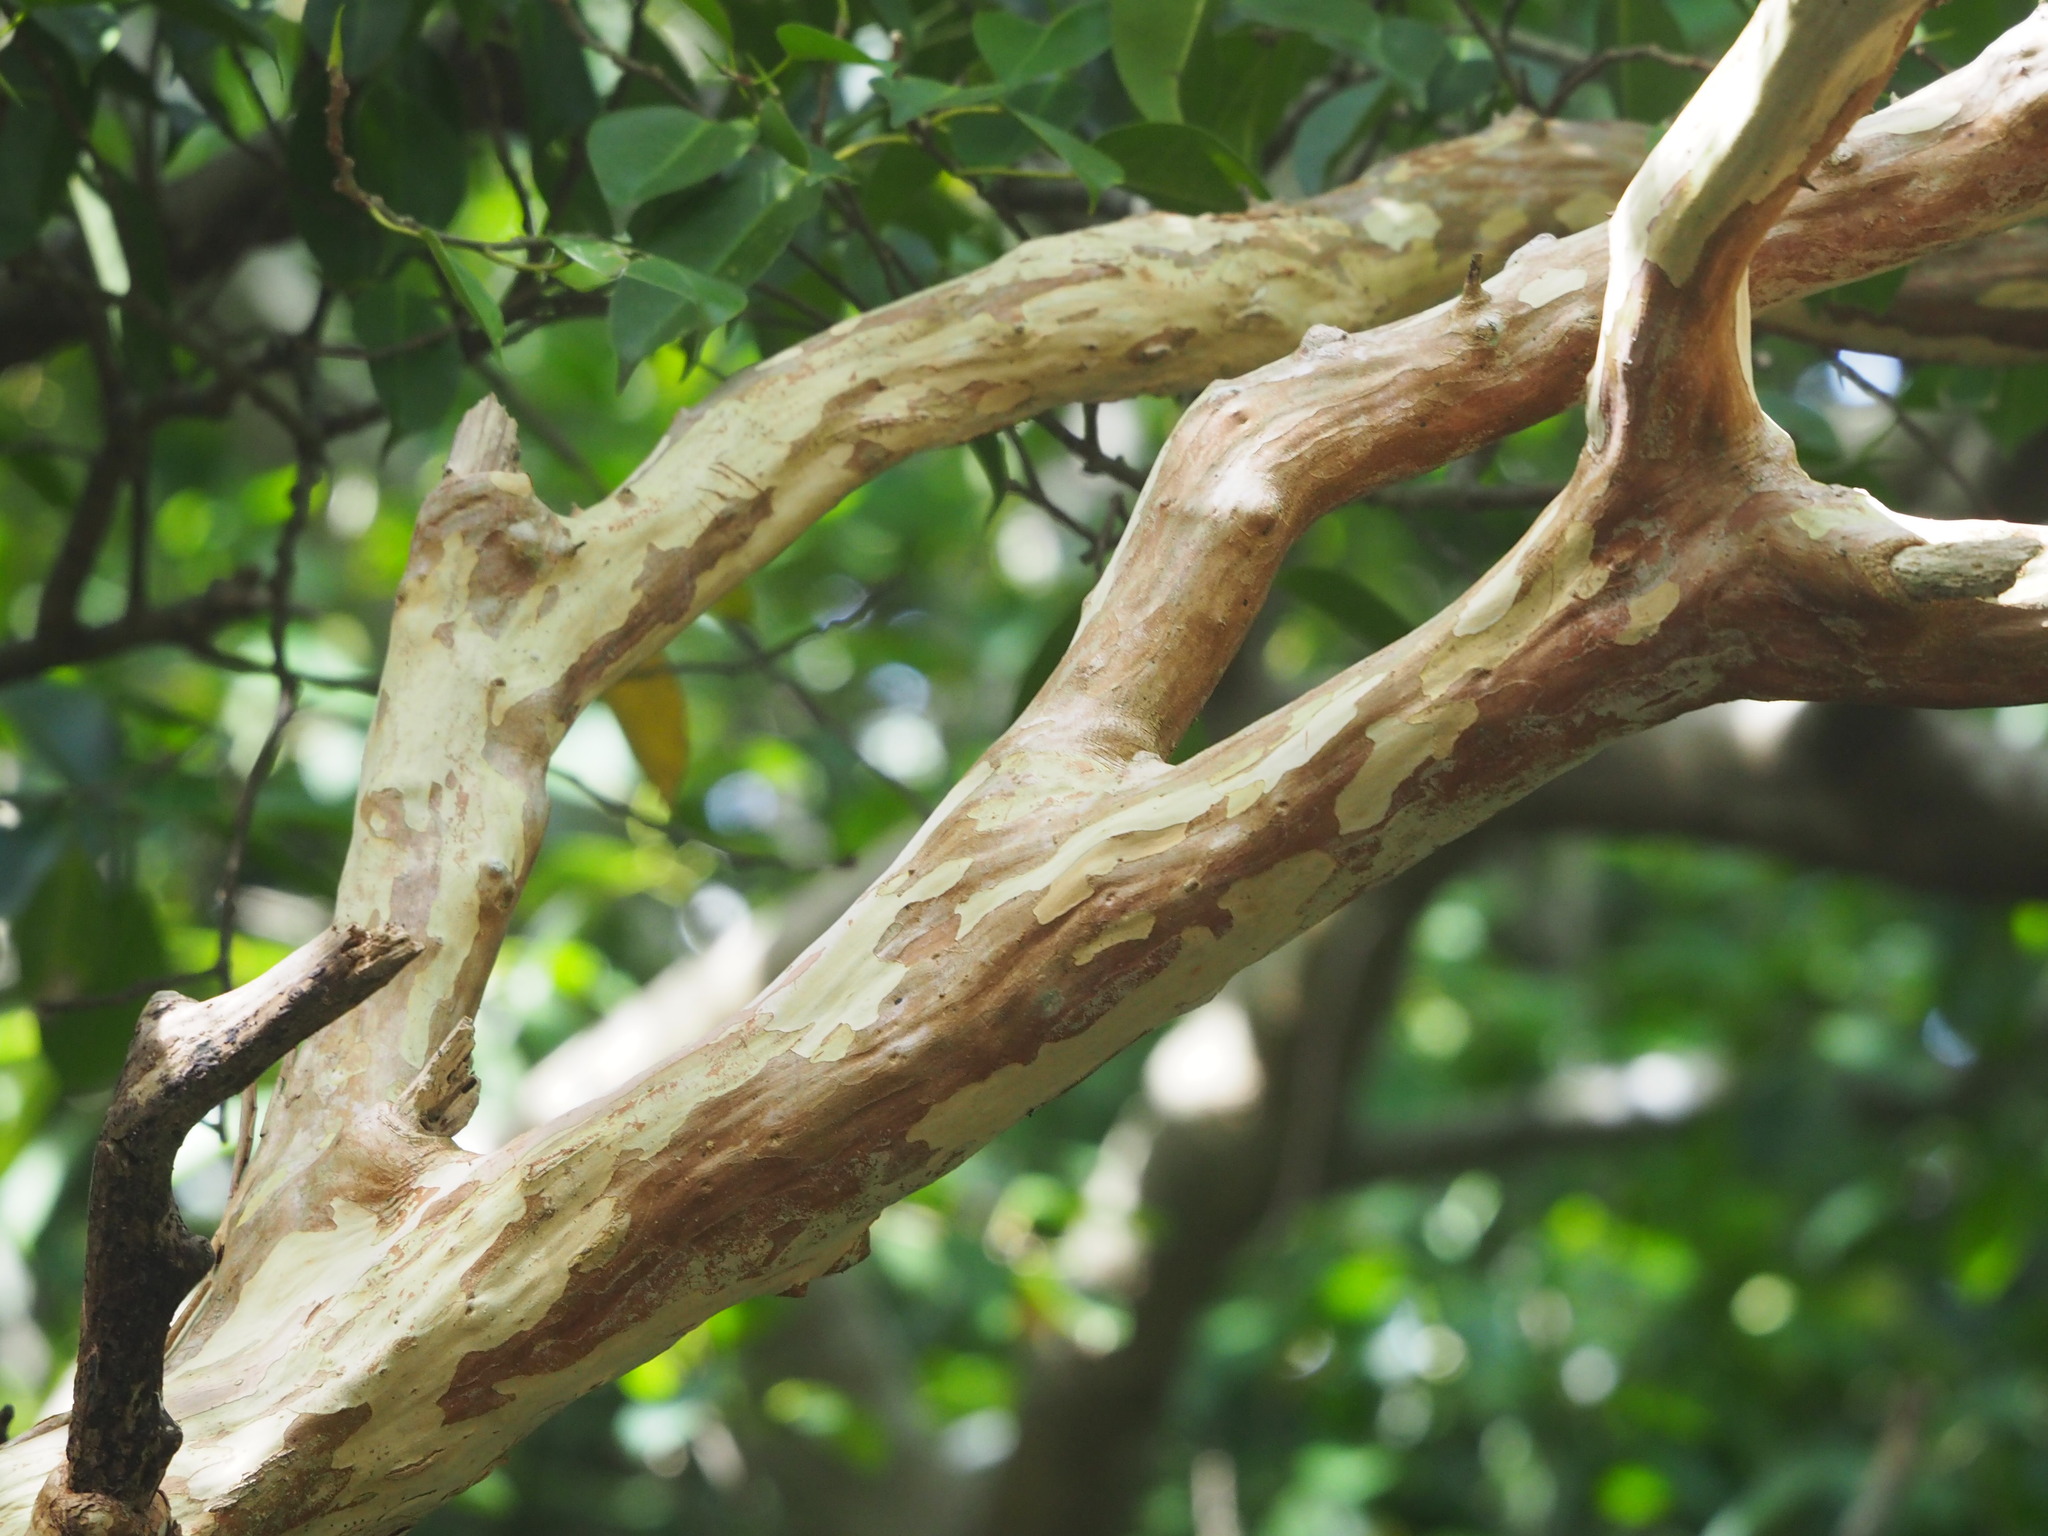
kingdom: Plantae
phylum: Tracheophyta
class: Magnoliopsida
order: Myrtales
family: Lythraceae
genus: Lagerstroemia
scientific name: Lagerstroemia subcostata
